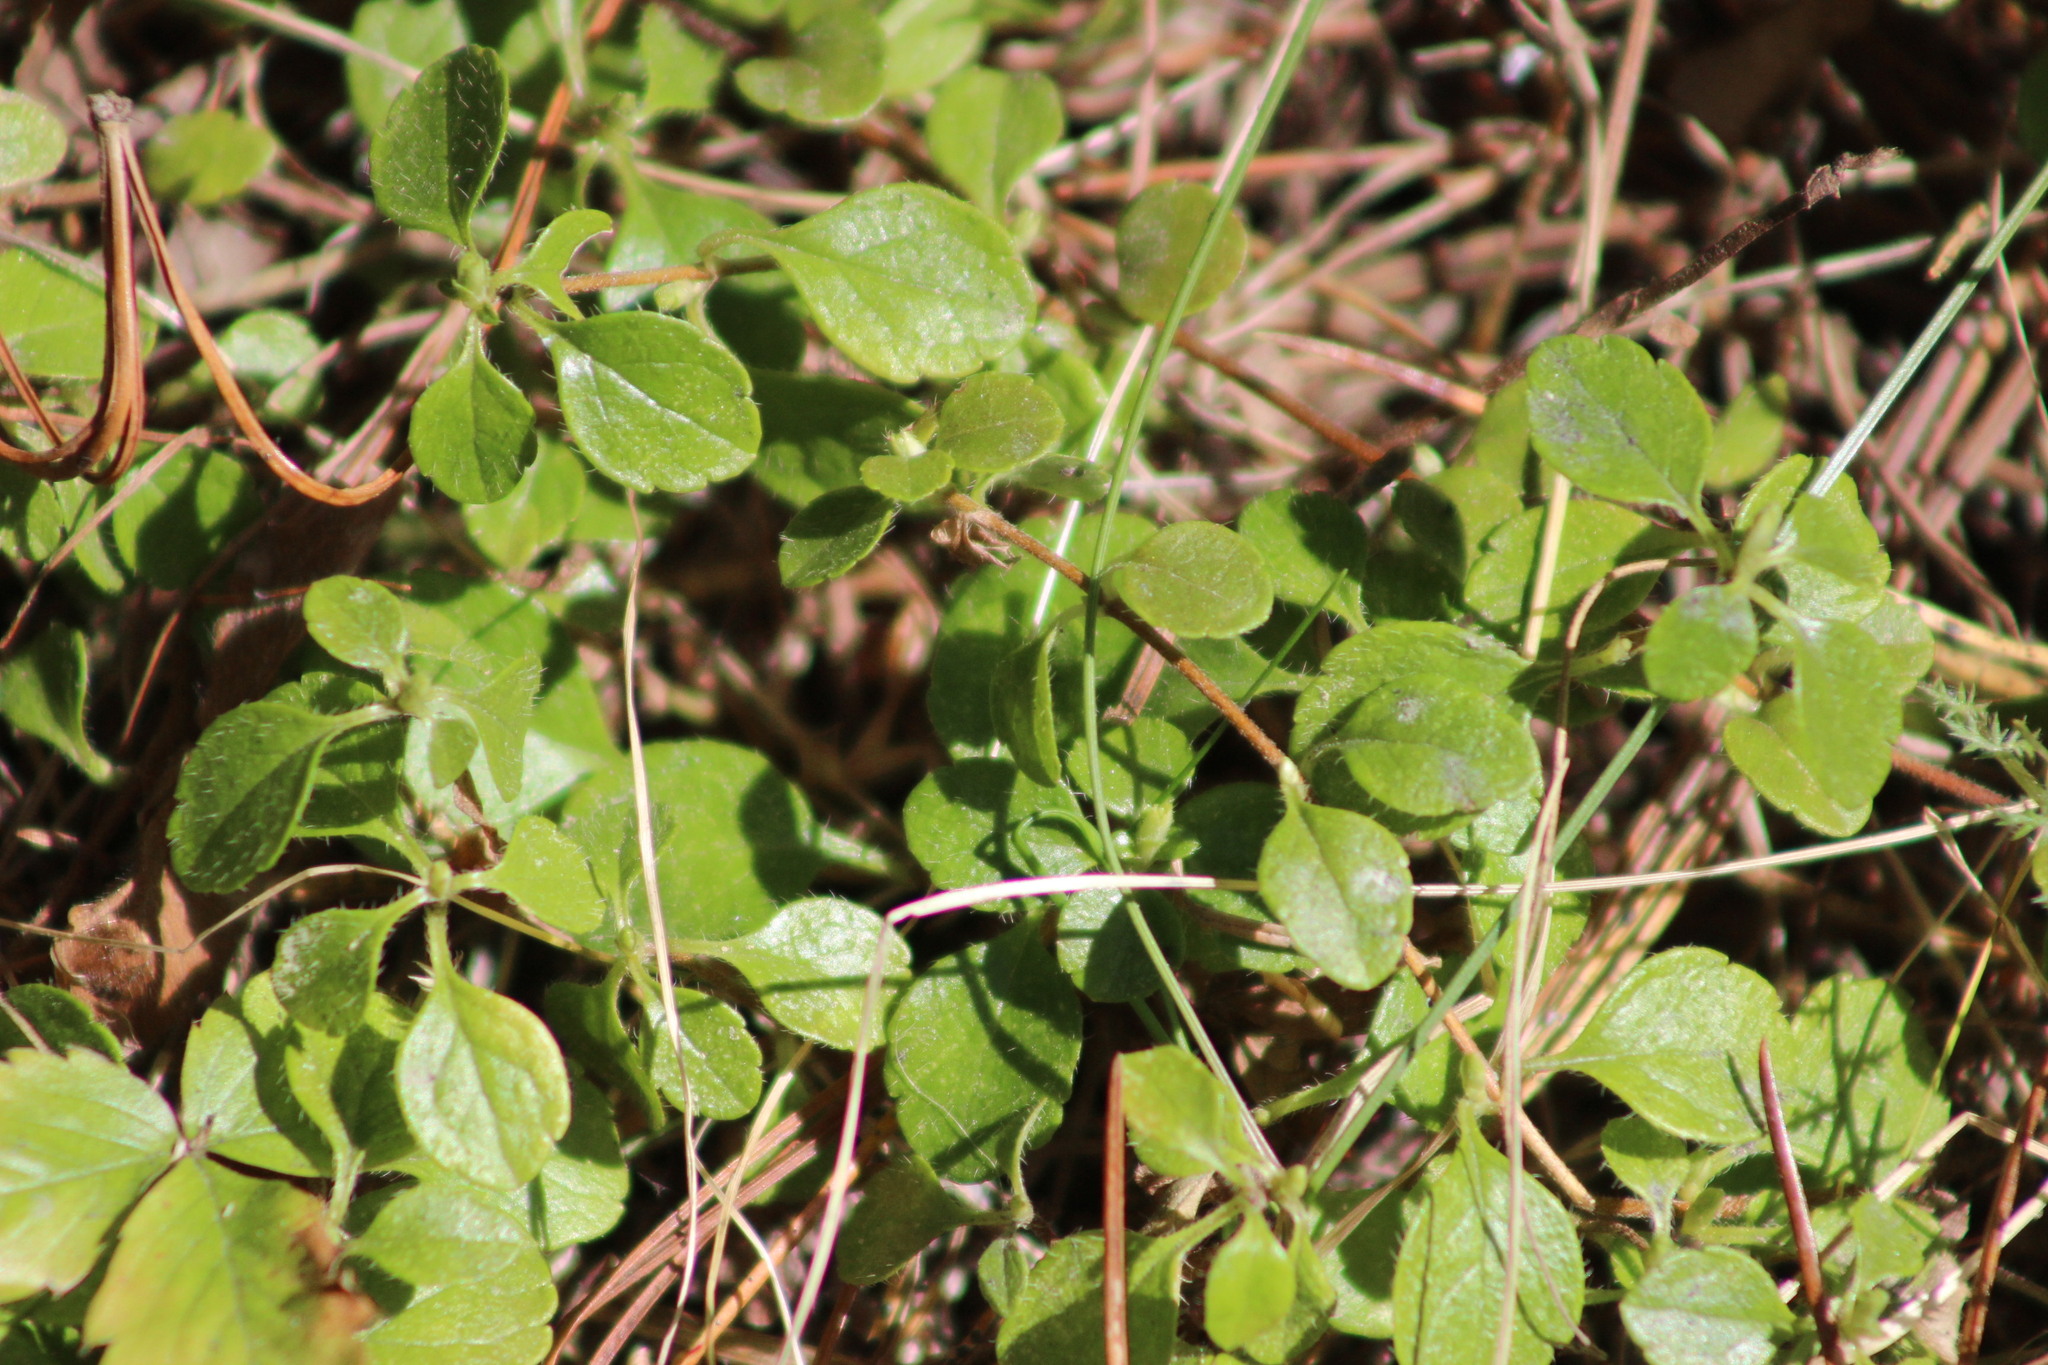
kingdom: Plantae
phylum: Tracheophyta
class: Magnoliopsida
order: Dipsacales
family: Caprifoliaceae
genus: Linnaea
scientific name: Linnaea borealis
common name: Twinflower
